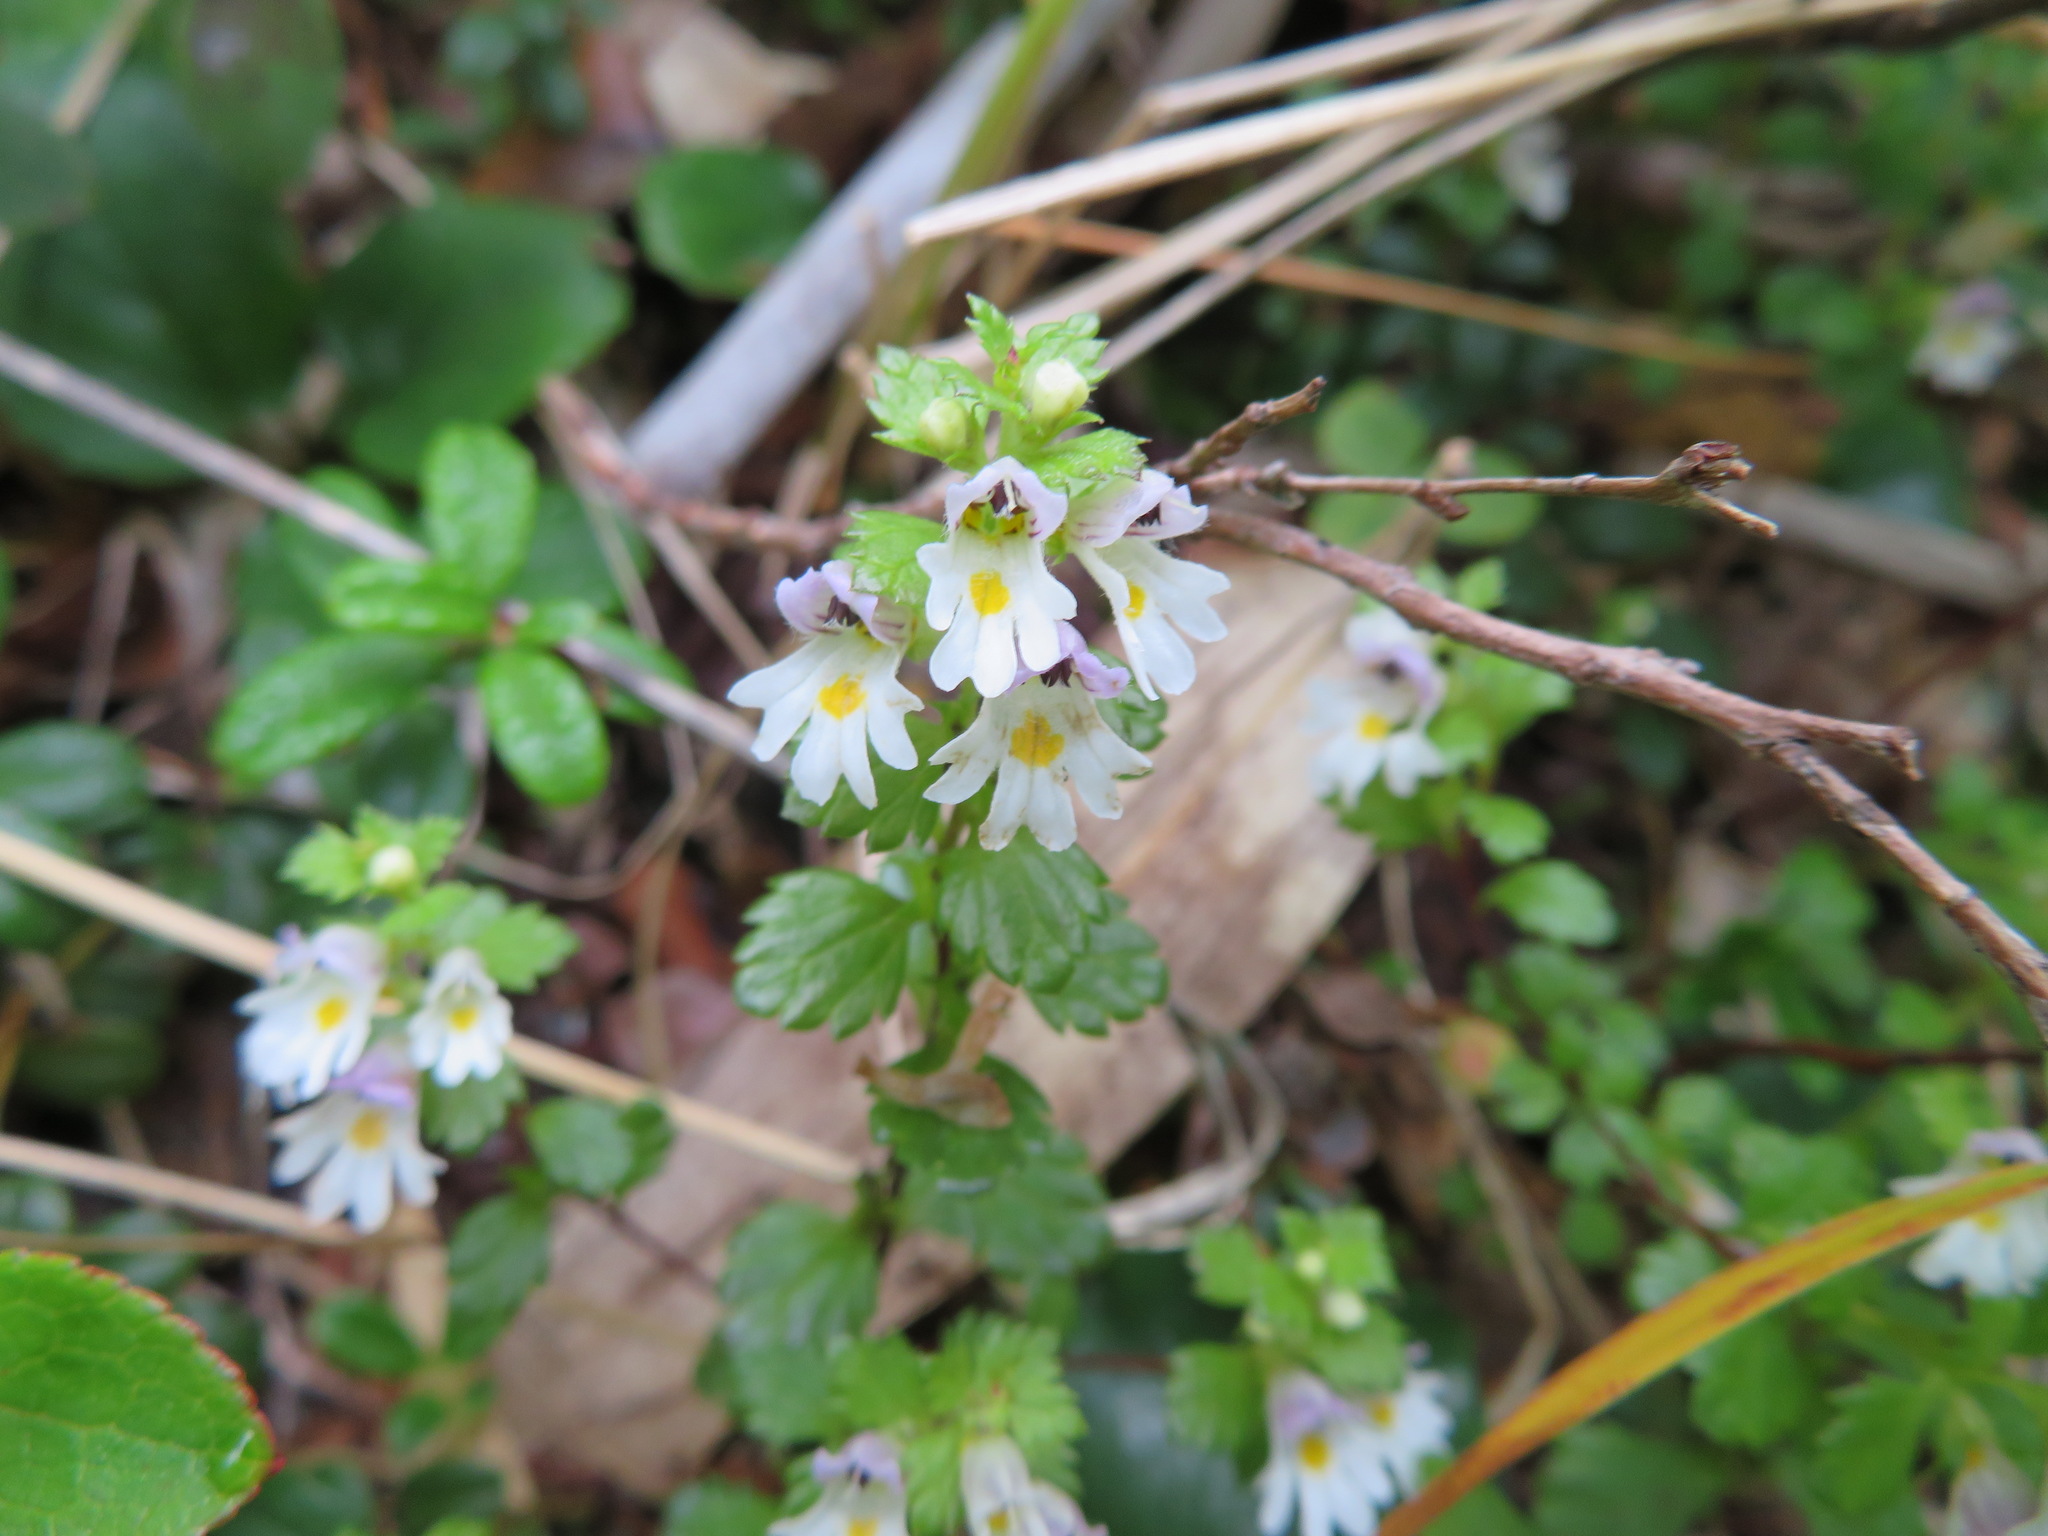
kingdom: Plantae
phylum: Tracheophyta
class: Magnoliopsida
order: Lamiales
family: Orobanchaceae
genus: Euphrasia
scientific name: Euphrasia insignis
